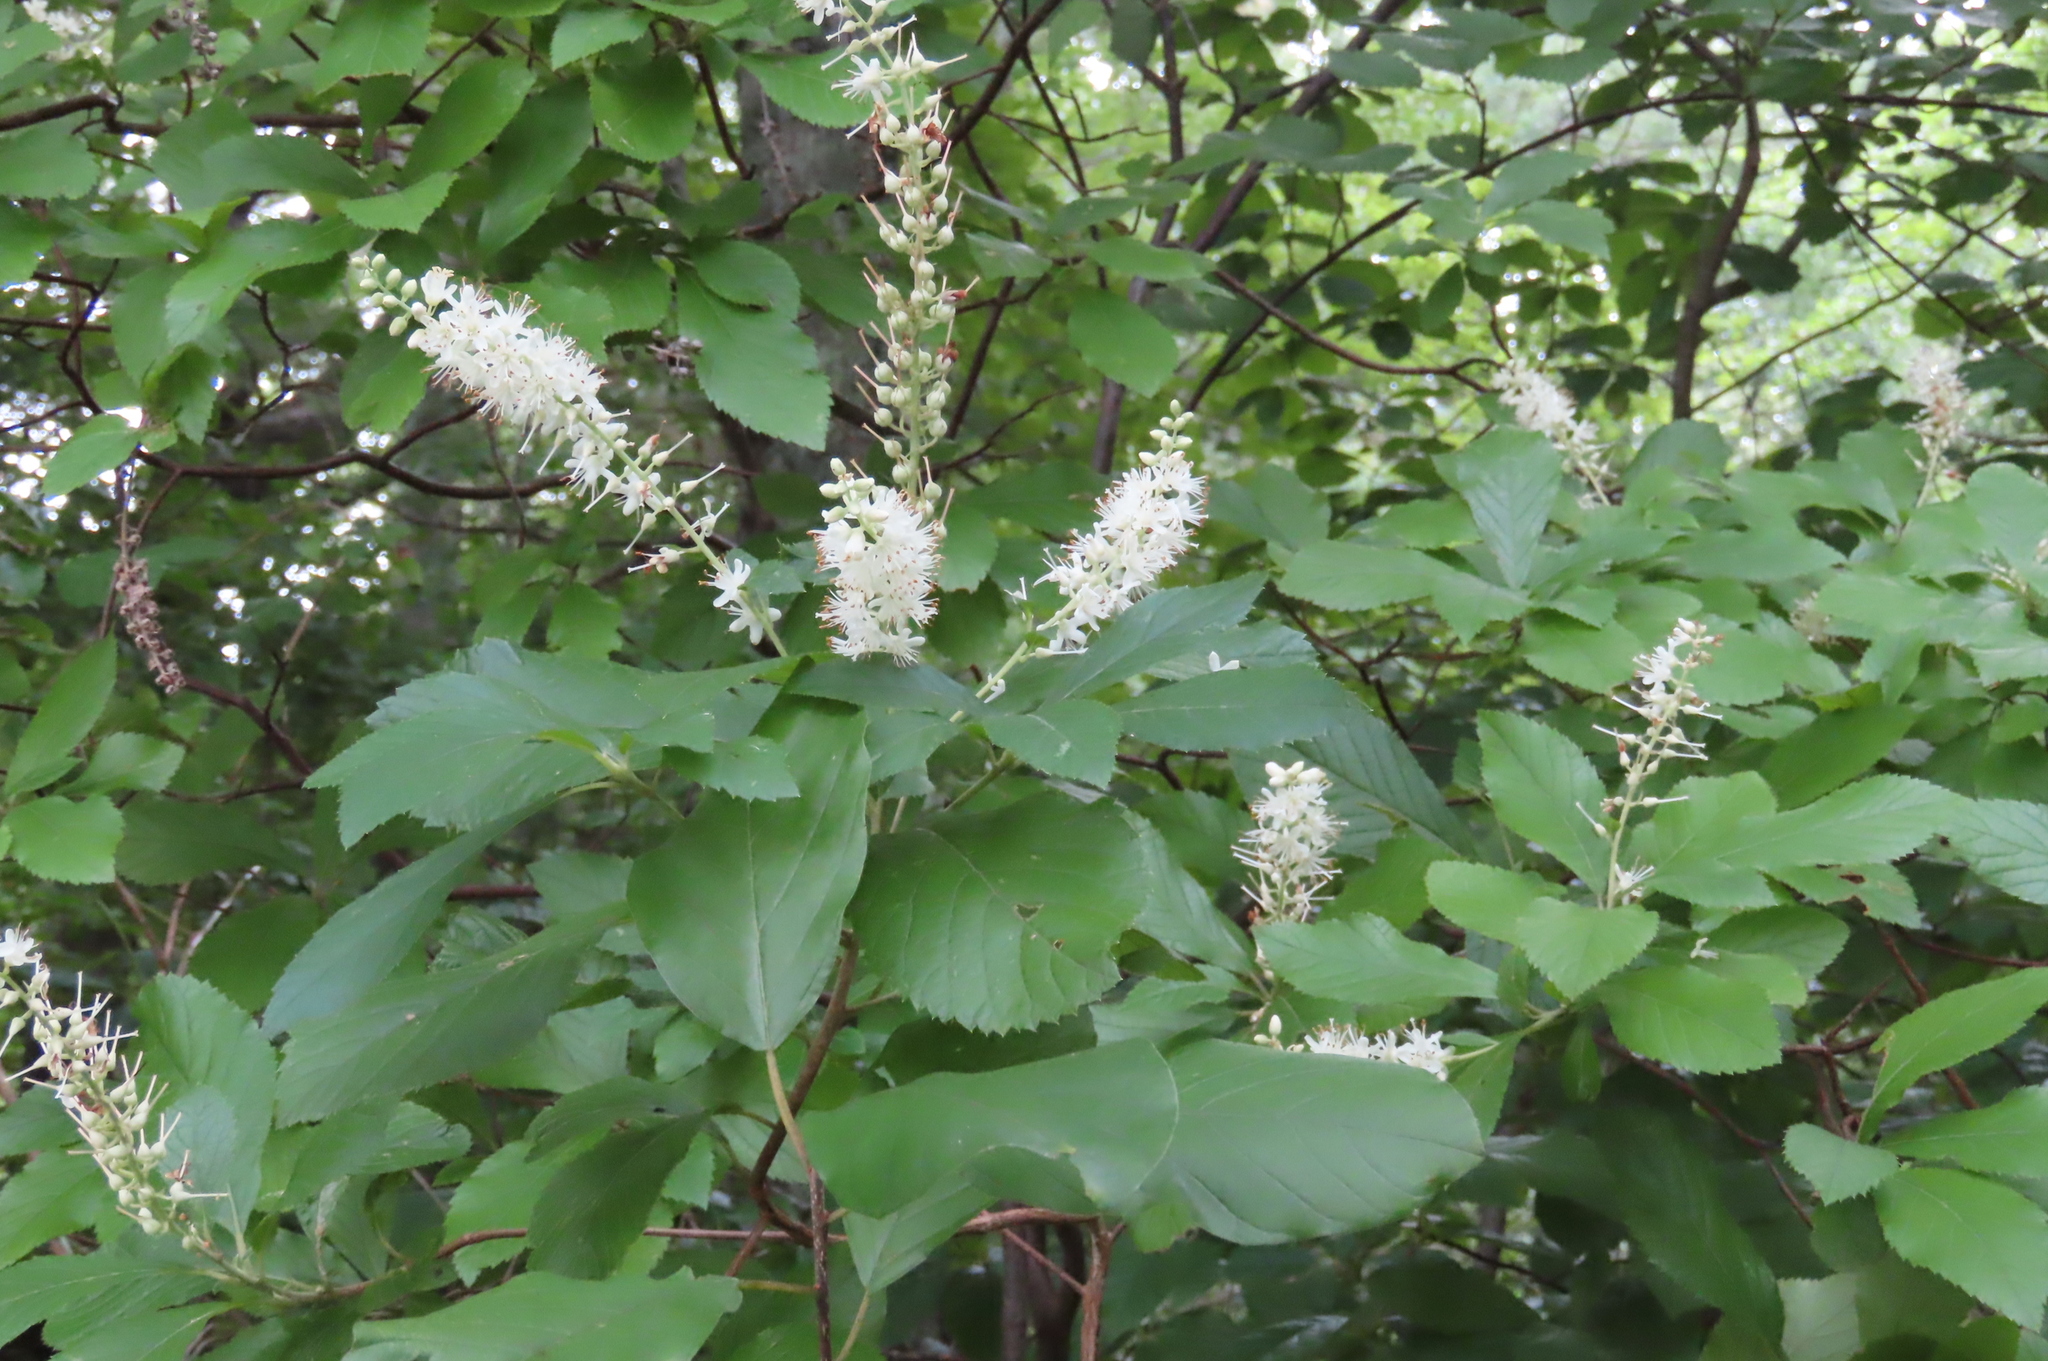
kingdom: Plantae
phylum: Tracheophyta
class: Magnoliopsida
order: Ericales
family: Clethraceae
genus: Clethra
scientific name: Clethra alnifolia
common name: Sweet pepperbush
